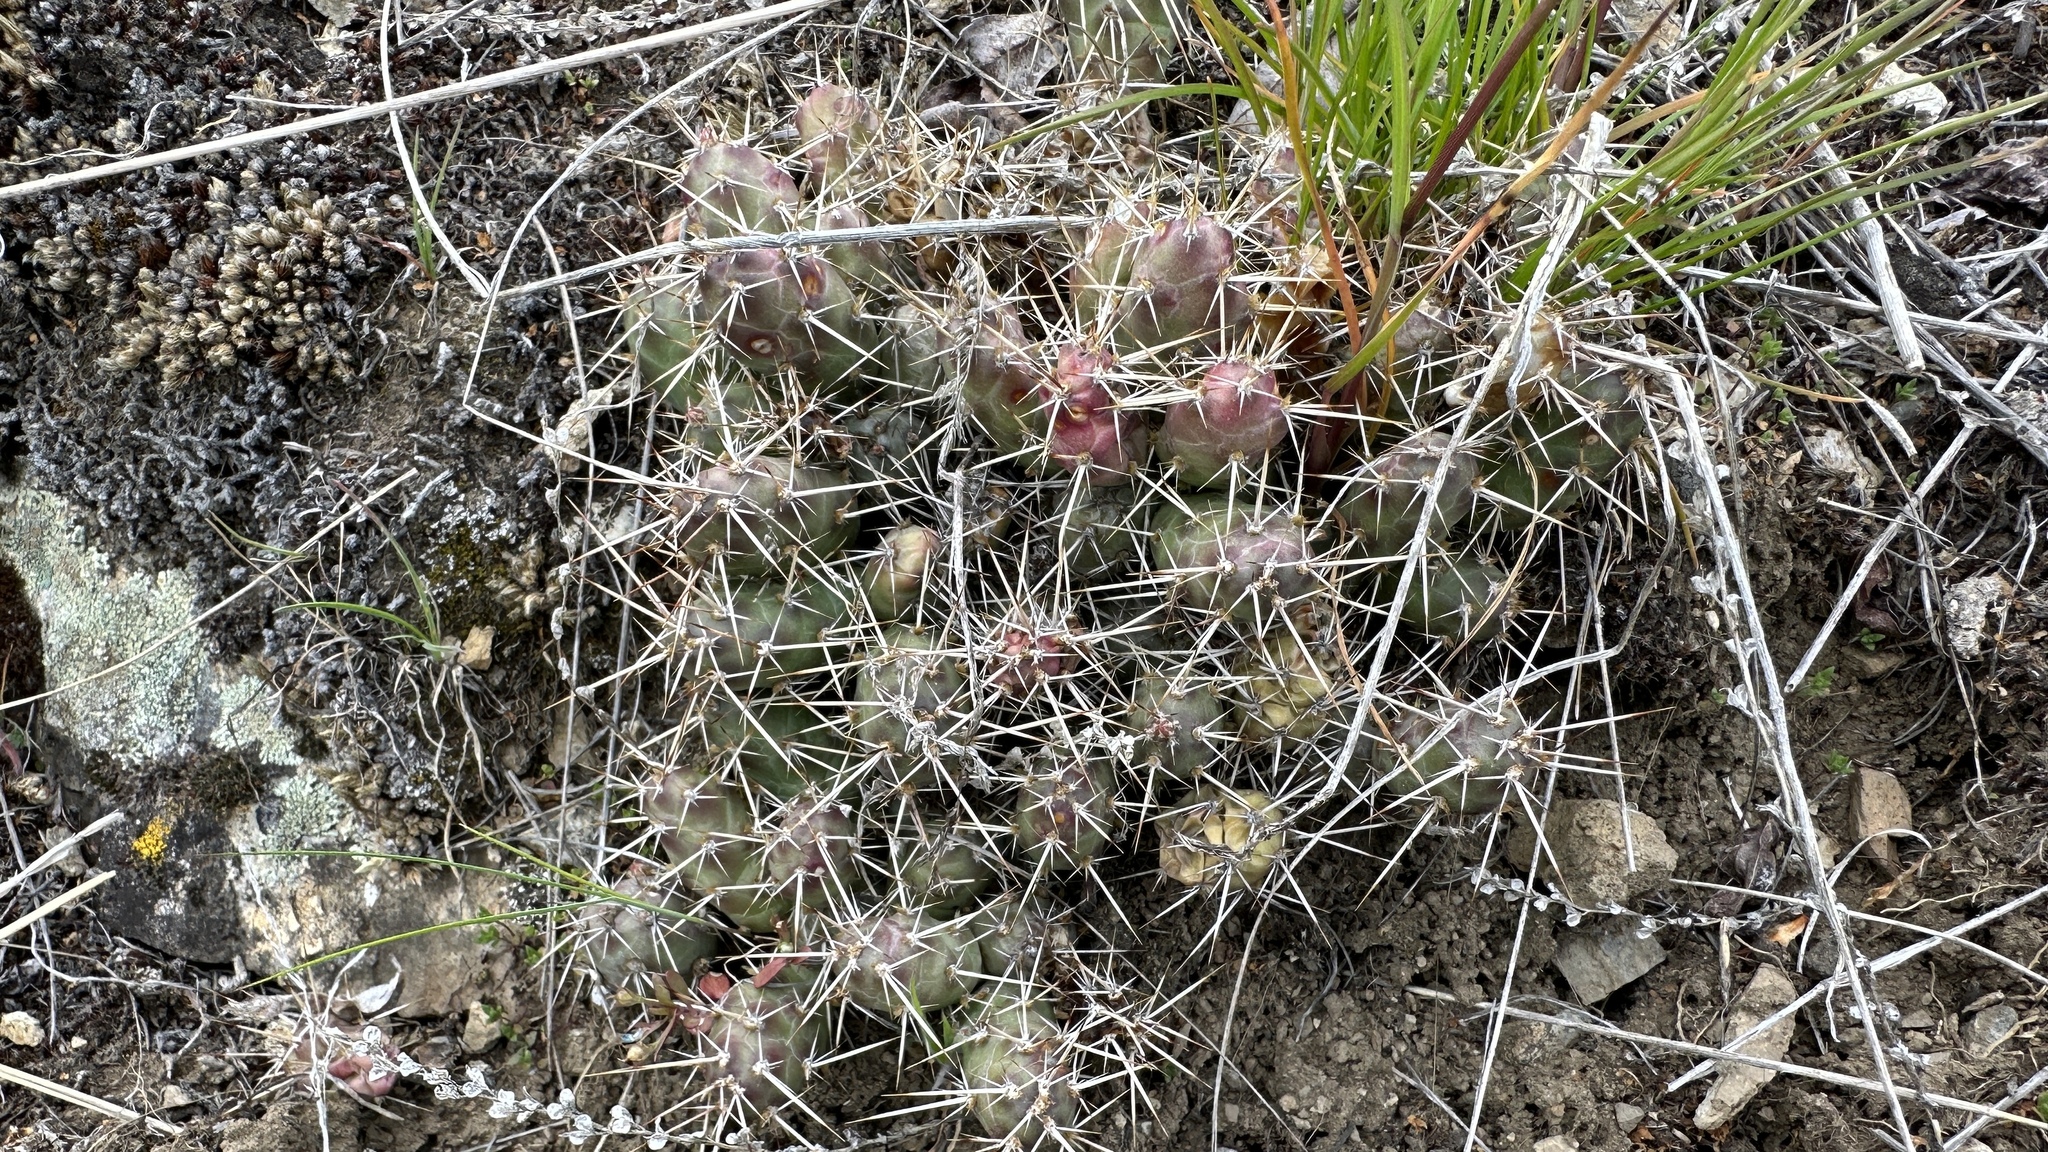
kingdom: Plantae
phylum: Tracheophyta
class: Magnoliopsida
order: Caryophyllales
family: Cactaceae
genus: Opuntia
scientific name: Opuntia fragilis
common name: Brittle cactus
